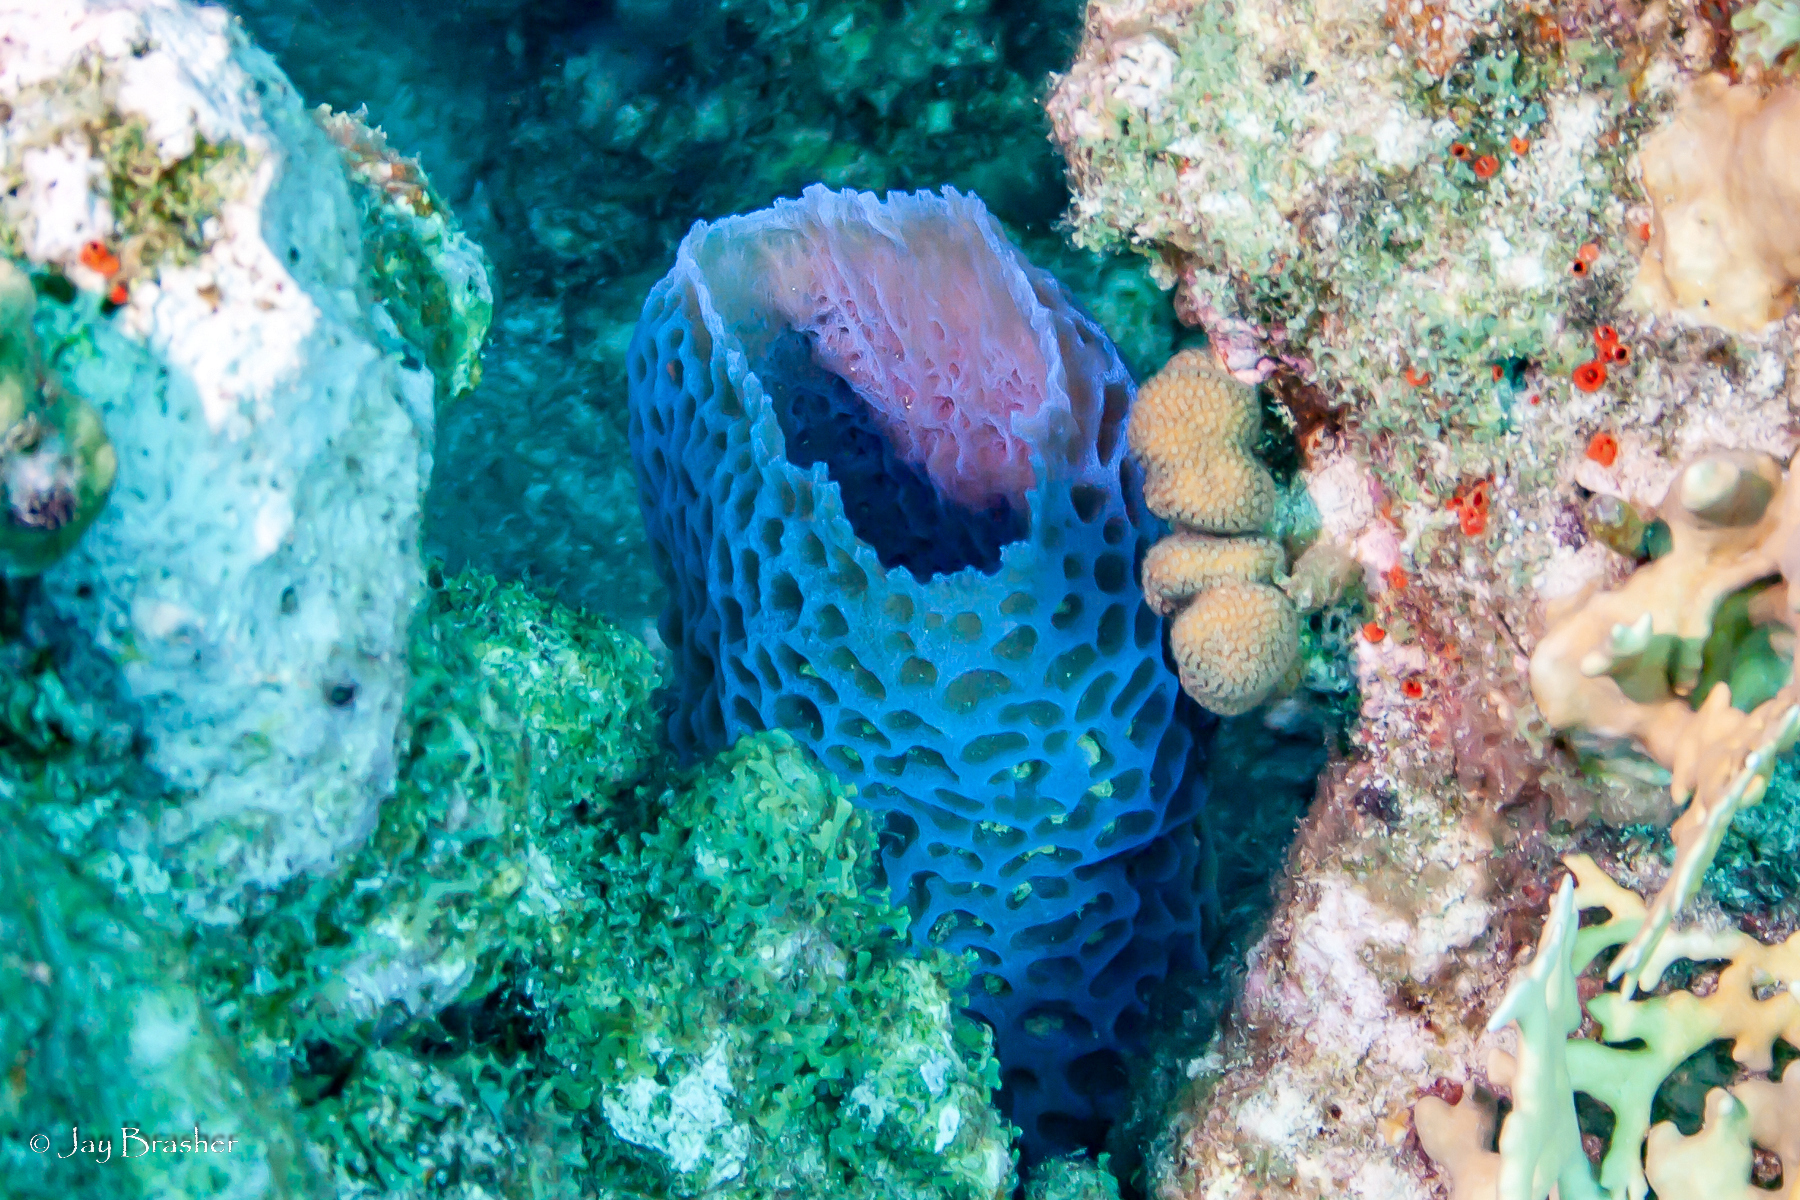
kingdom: Animalia
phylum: Porifera
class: Demospongiae
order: Haplosclerida
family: Callyspongiidae
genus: Callyspongia
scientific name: Callyspongia plicifera
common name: Azure vase sponge
